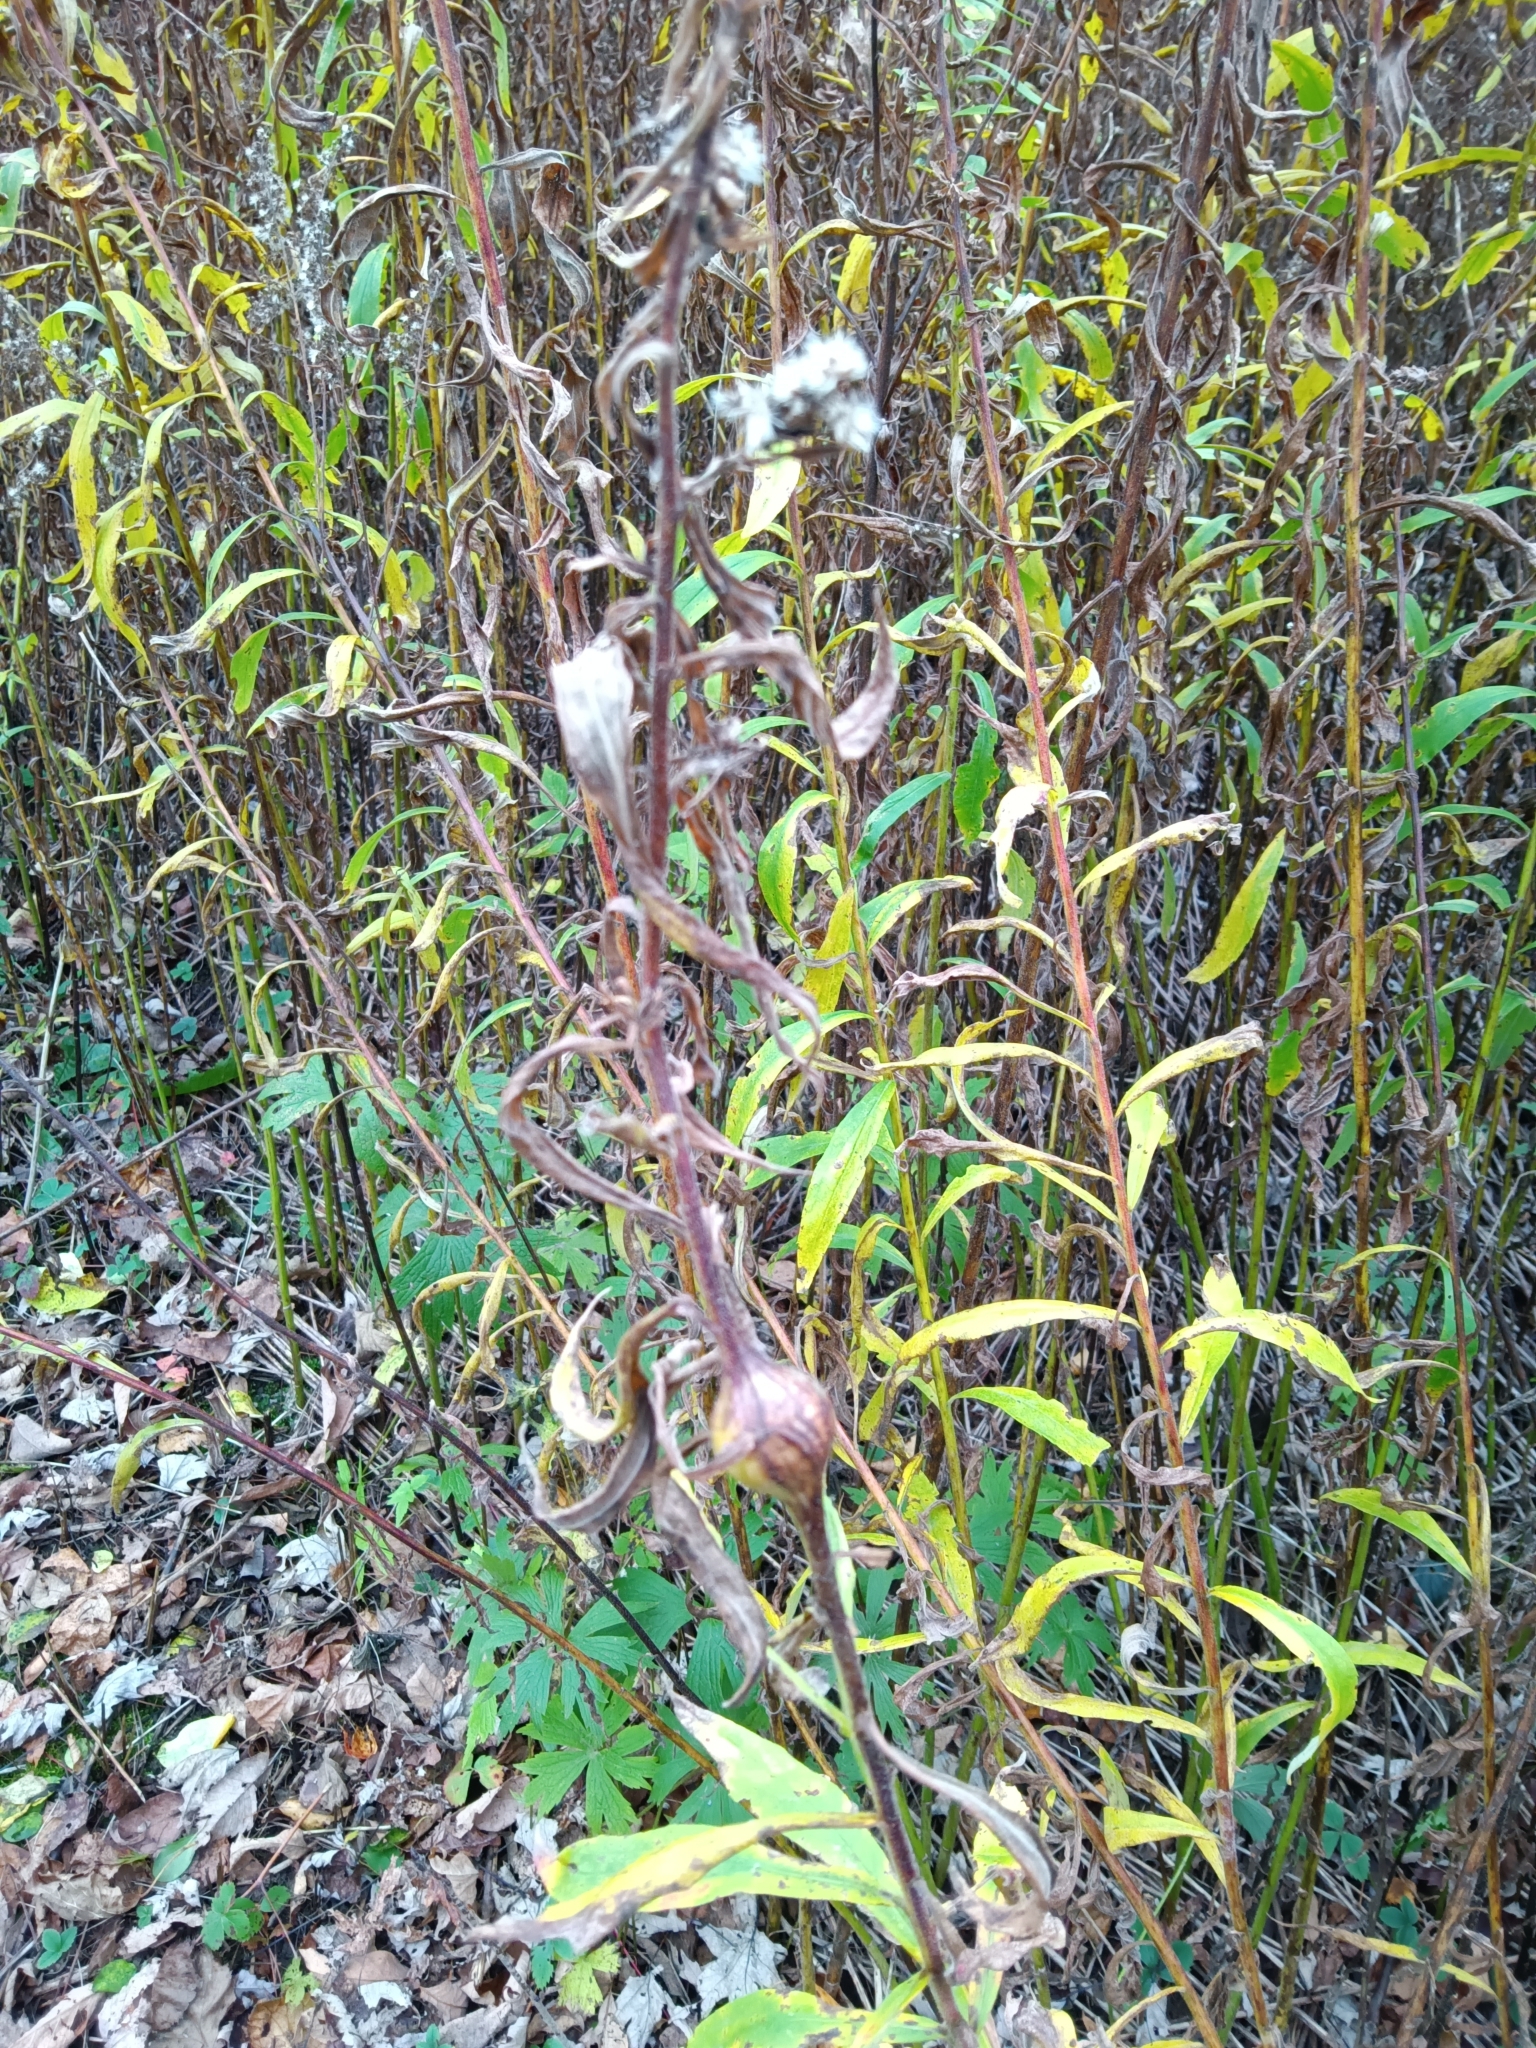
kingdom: Animalia
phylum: Arthropoda
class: Insecta
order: Diptera
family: Tephritidae
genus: Eurosta
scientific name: Eurosta solidaginis
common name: Goldenrod gall fly
